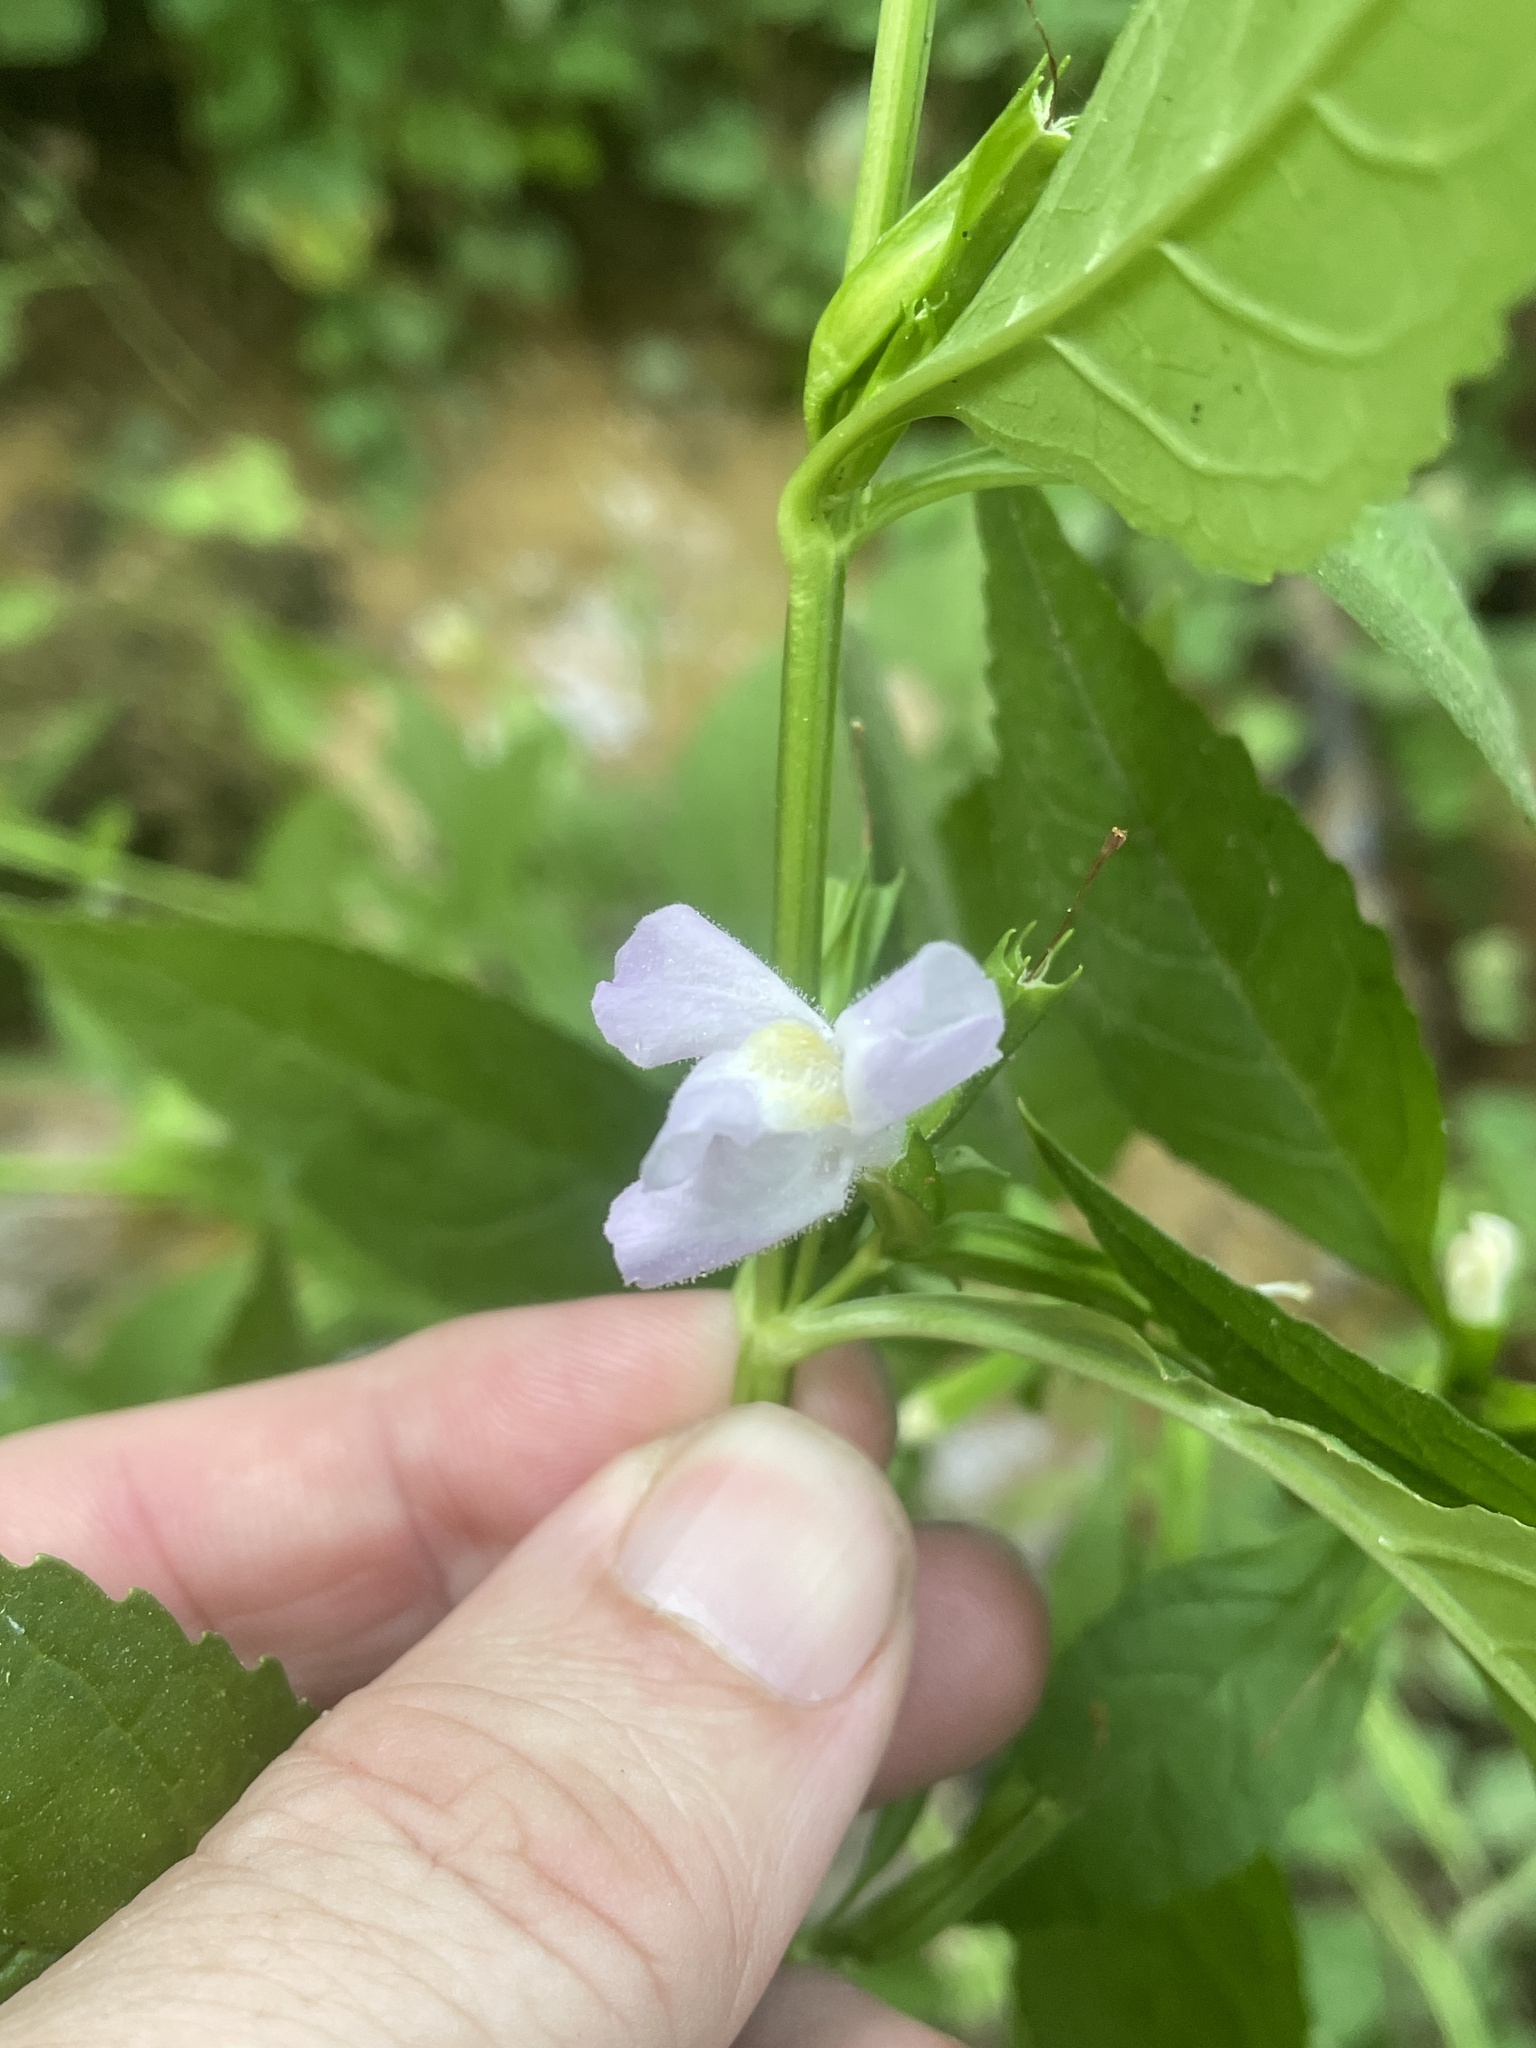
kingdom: Plantae
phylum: Tracheophyta
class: Magnoliopsida
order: Lamiales
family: Phrymaceae
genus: Mimulus
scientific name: Mimulus alatus
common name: Sharp-wing monkey-flower
